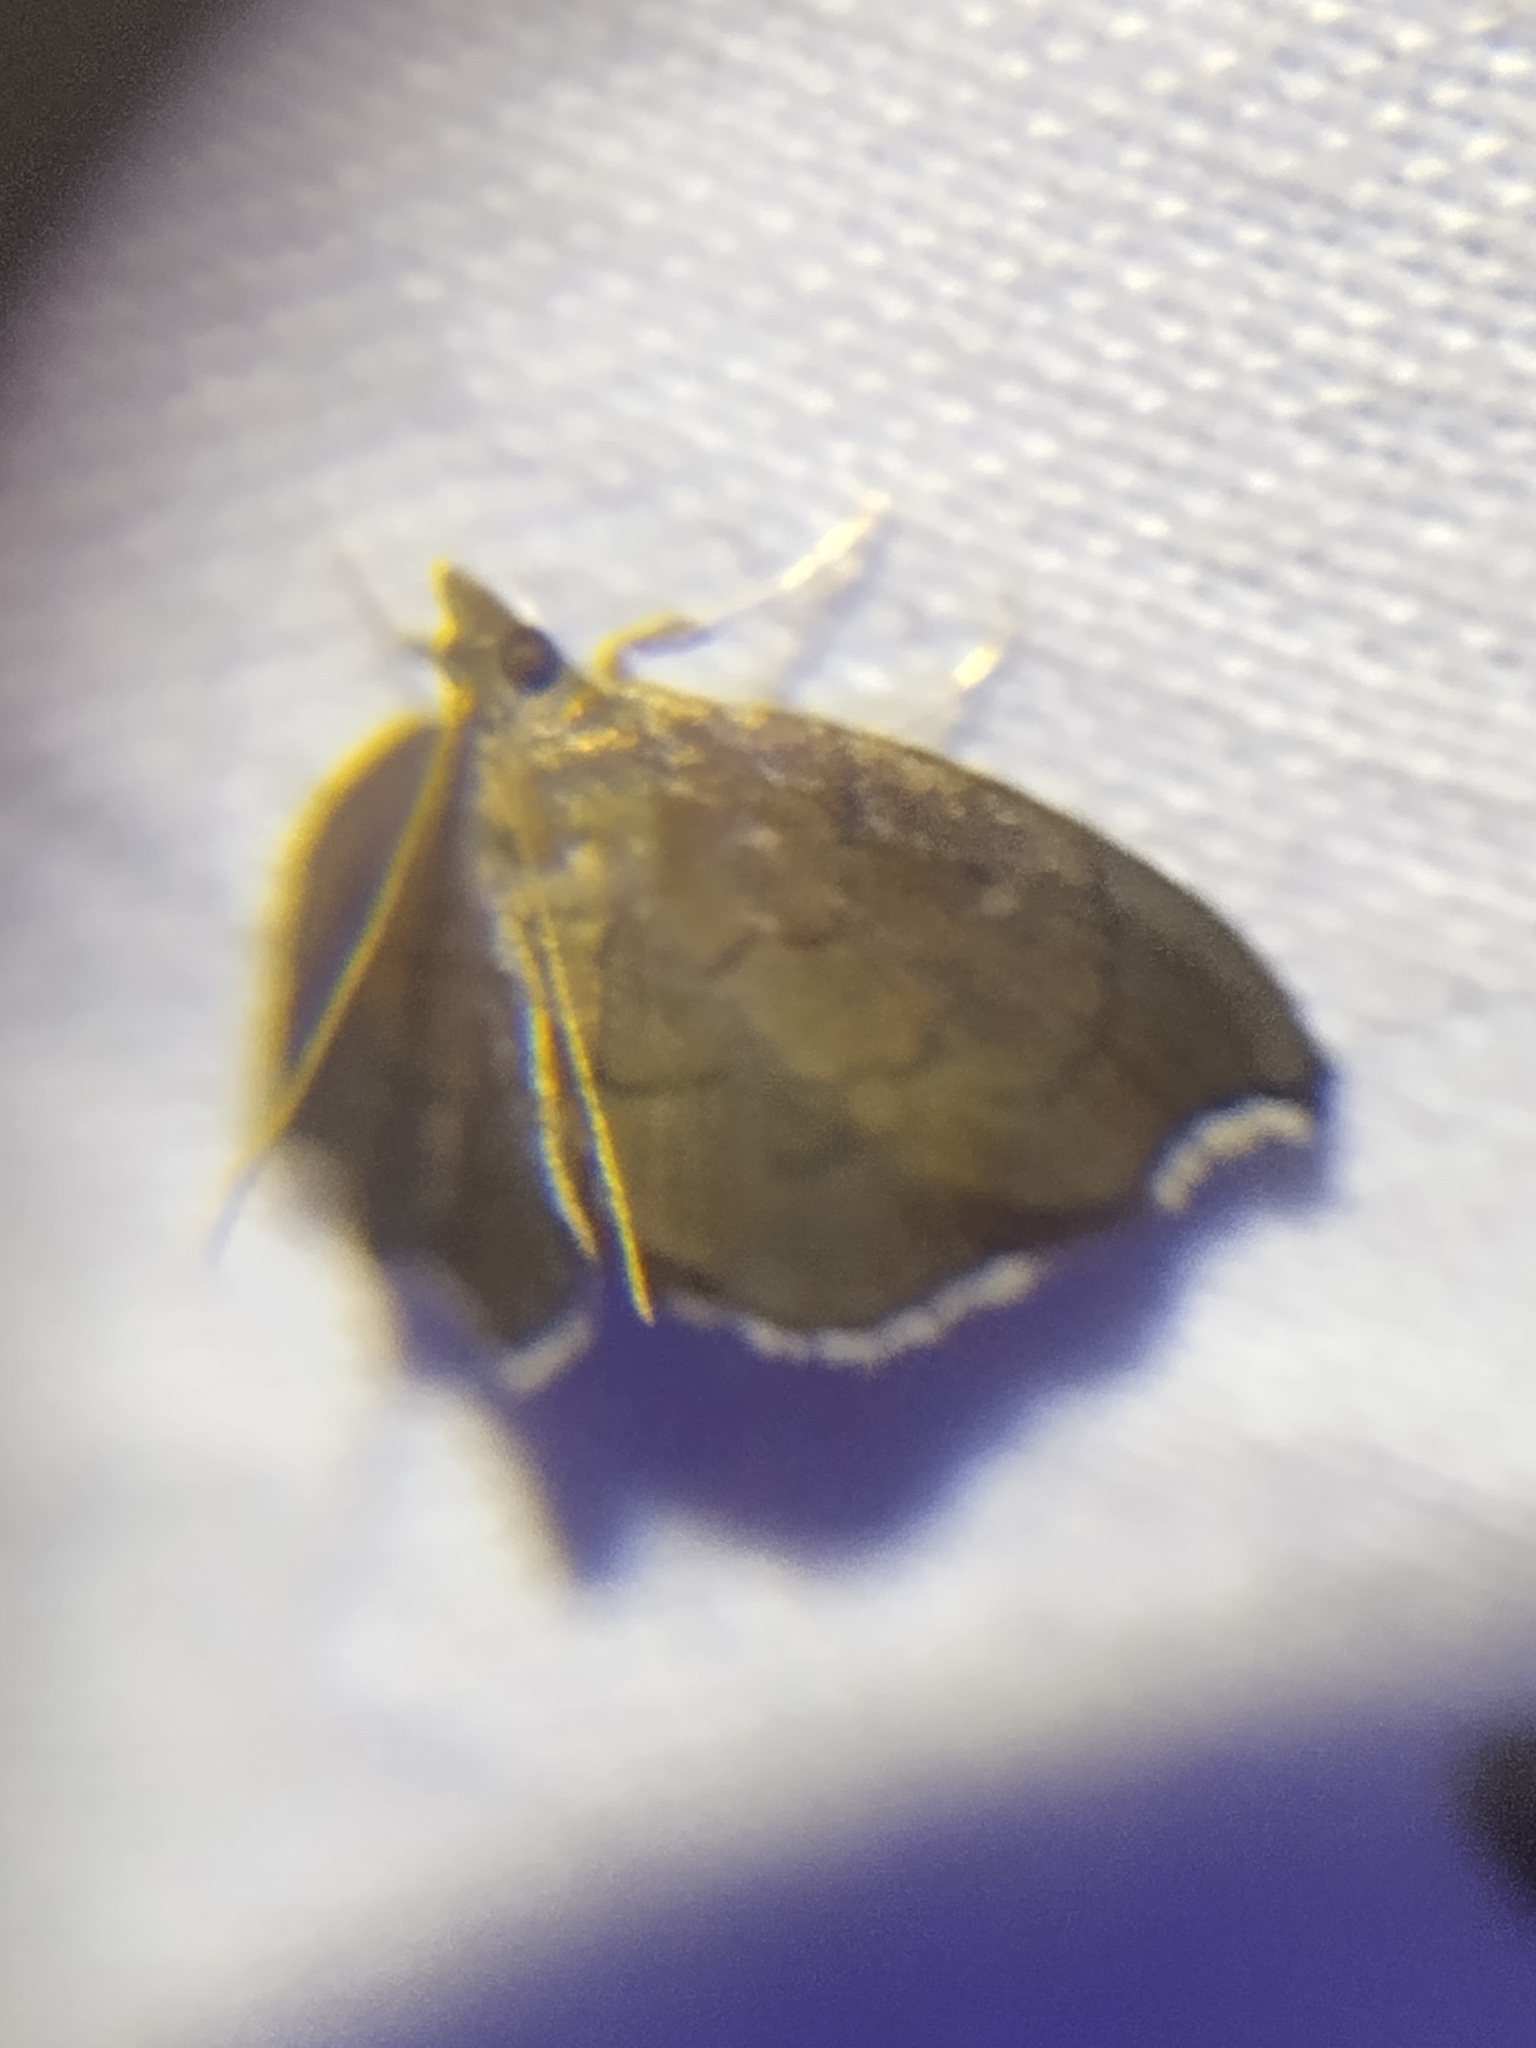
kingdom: Animalia
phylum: Arthropoda
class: Insecta
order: Lepidoptera
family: Crambidae
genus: Perispasta
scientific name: Perispasta caeculalis
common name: Titian peale's moth
